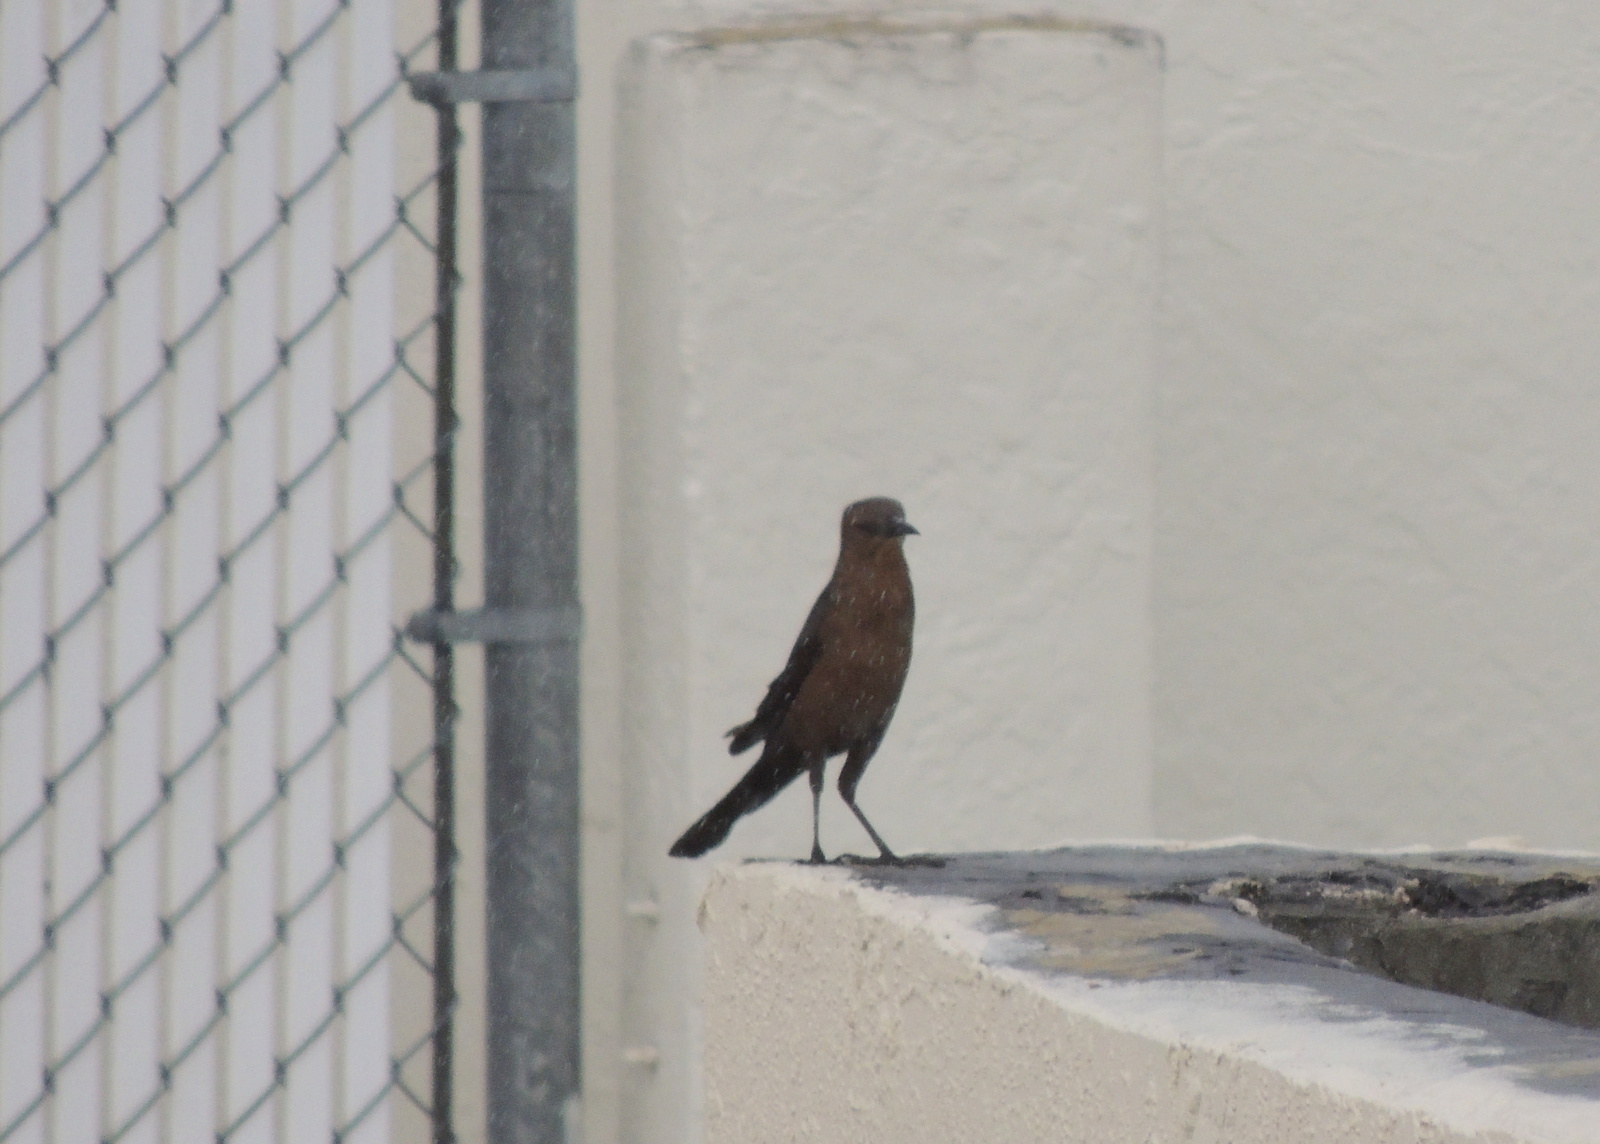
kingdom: Animalia
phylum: Chordata
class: Aves
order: Passeriformes
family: Icteridae
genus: Quiscalus
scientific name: Quiscalus major
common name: Boat-tailed grackle
